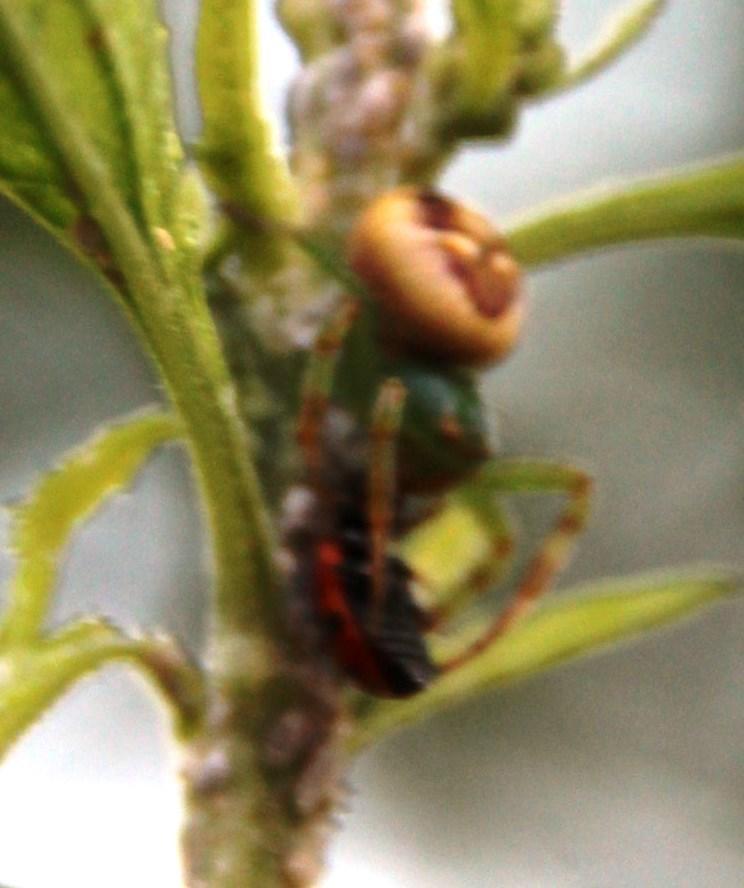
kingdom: Animalia
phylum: Arthropoda
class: Arachnida
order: Araneae
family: Thomisidae
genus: Synema
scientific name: Synema imitatrix
